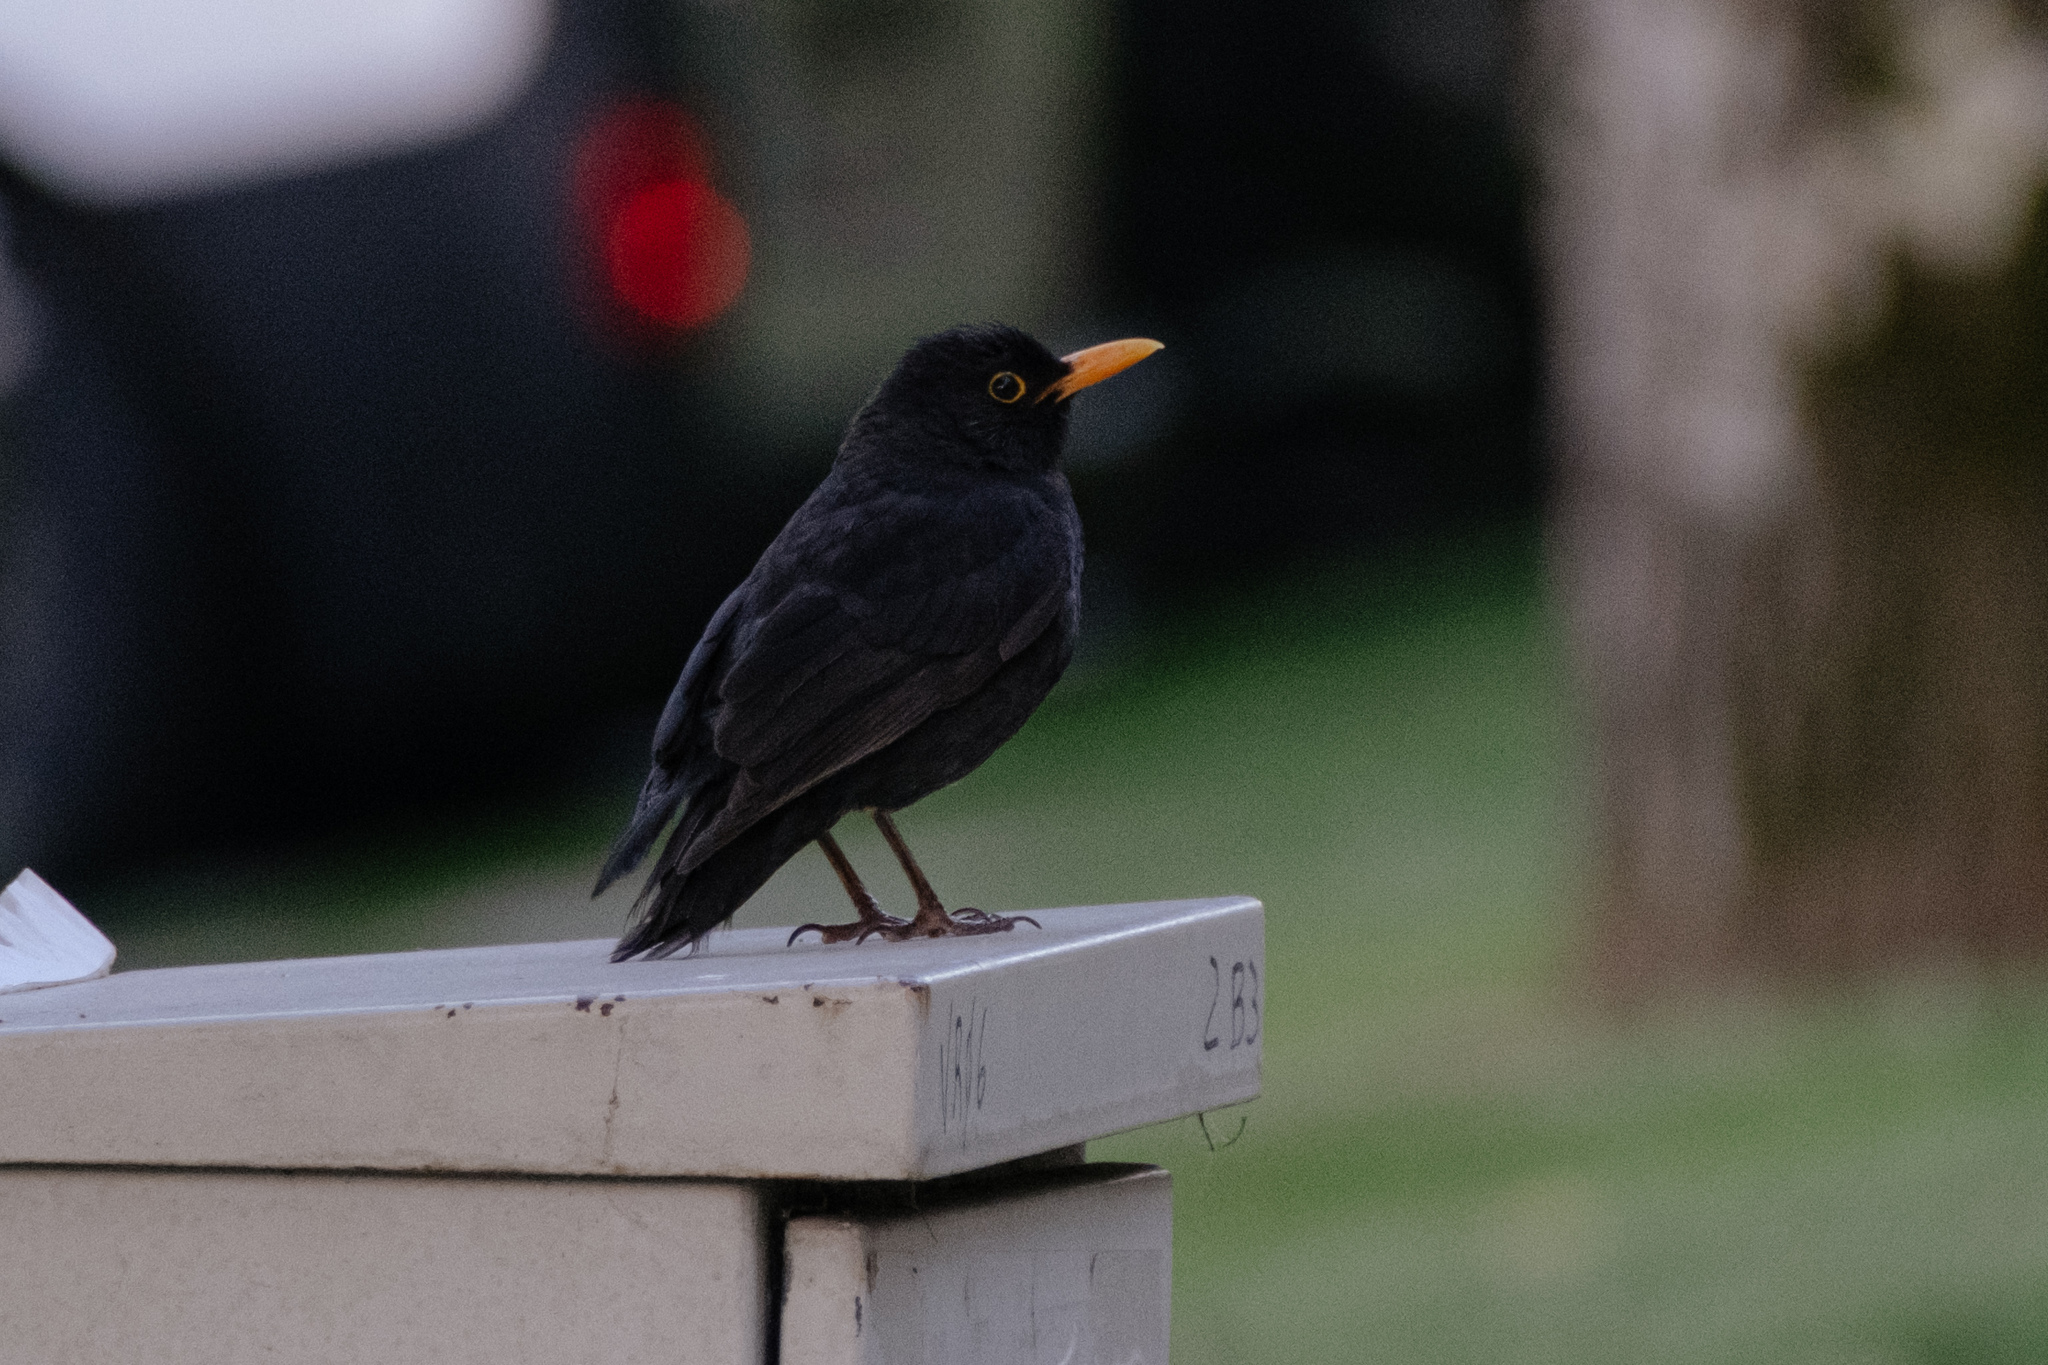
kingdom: Animalia
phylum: Chordata
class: Aves
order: Passeriformes
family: Turdidae
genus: Turdus
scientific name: Turdus merula
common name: Common blackbird
